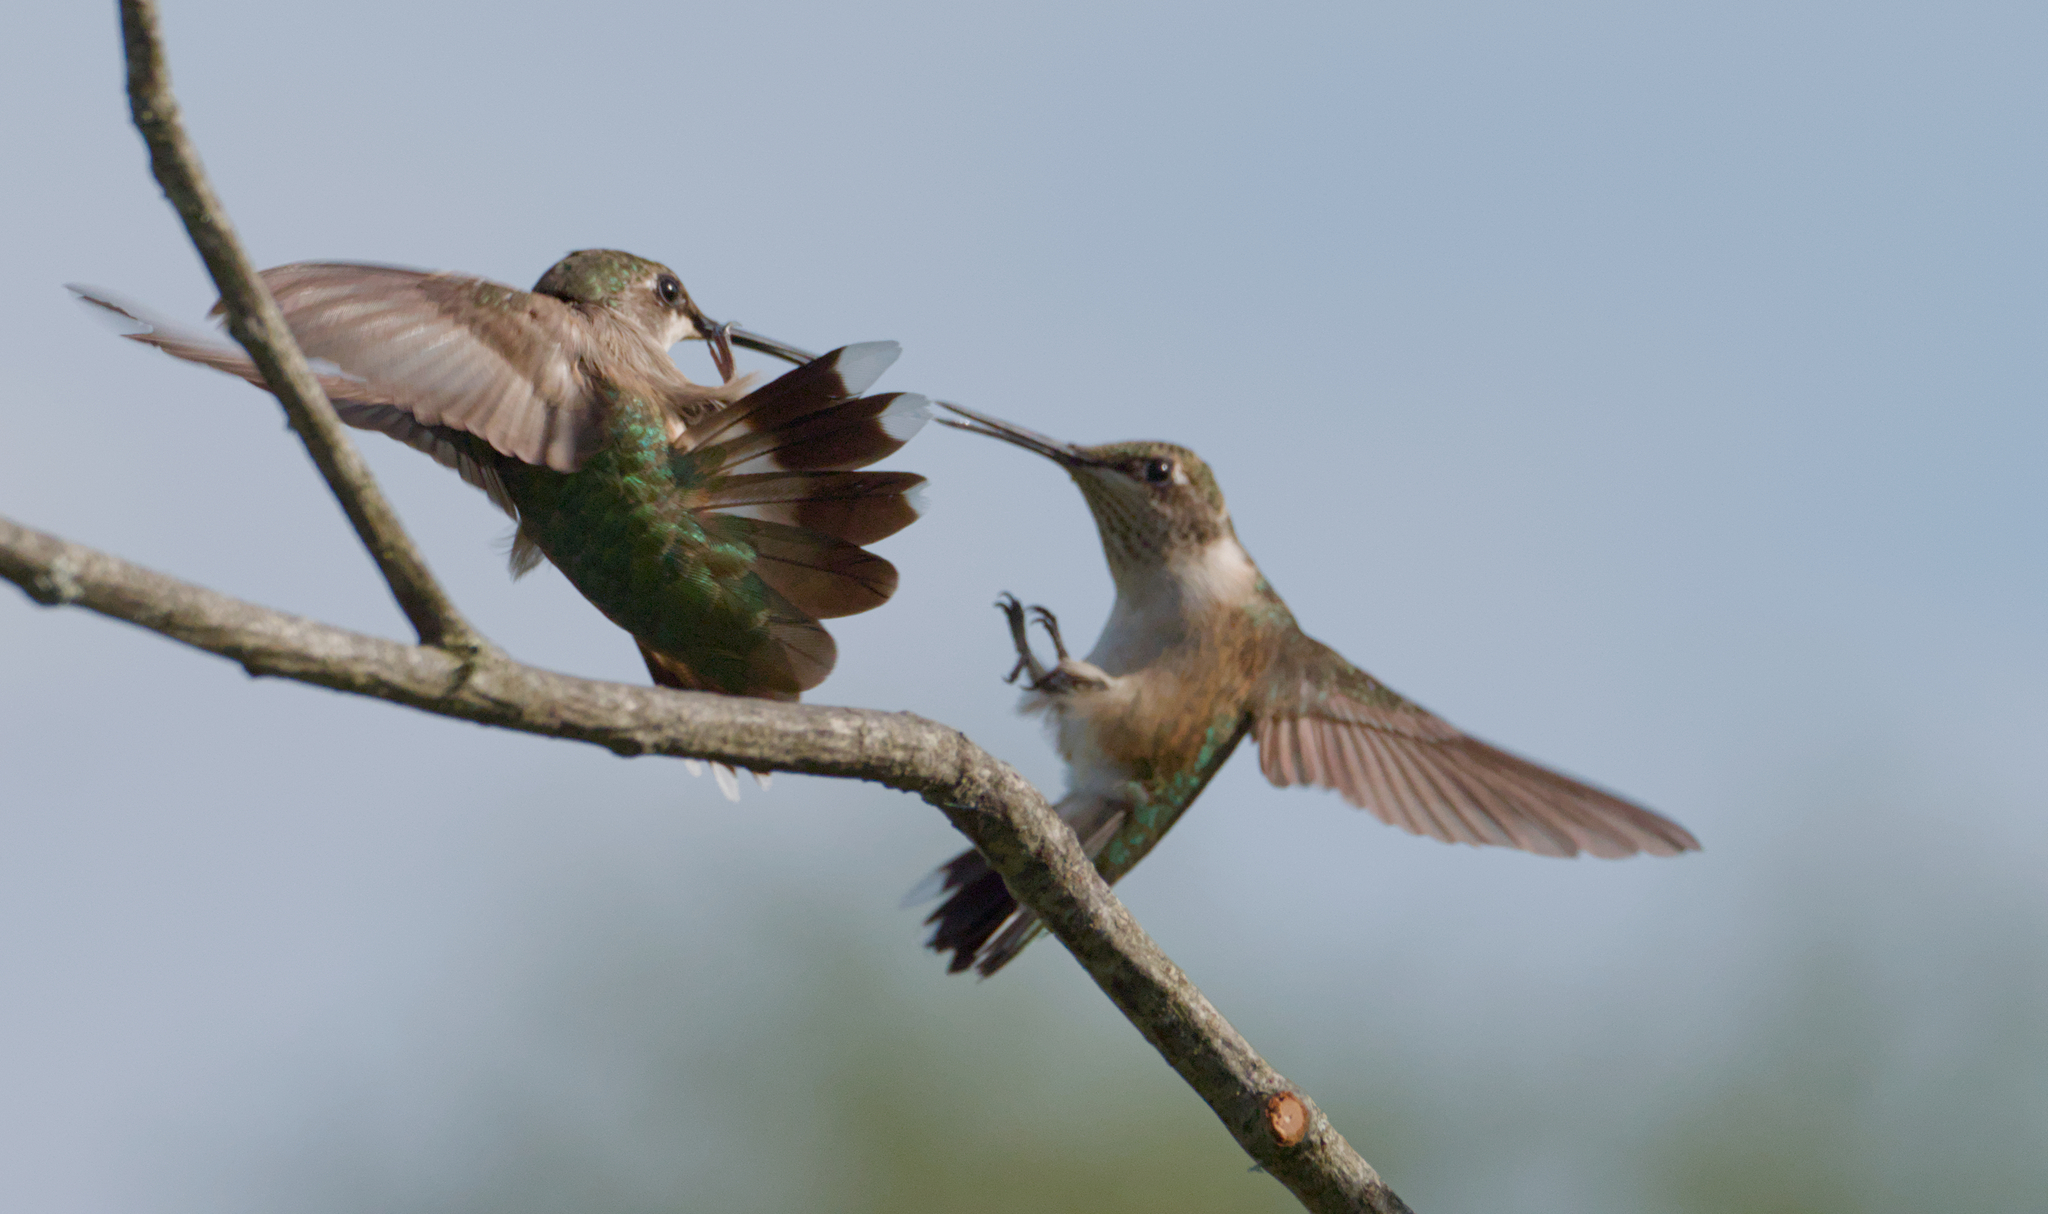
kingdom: Animalia
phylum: Chordata
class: Aves
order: Apodiformes
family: Trochilidae
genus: Archilochus
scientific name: Archilochus colubris
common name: Ruby-throated hummingbird
